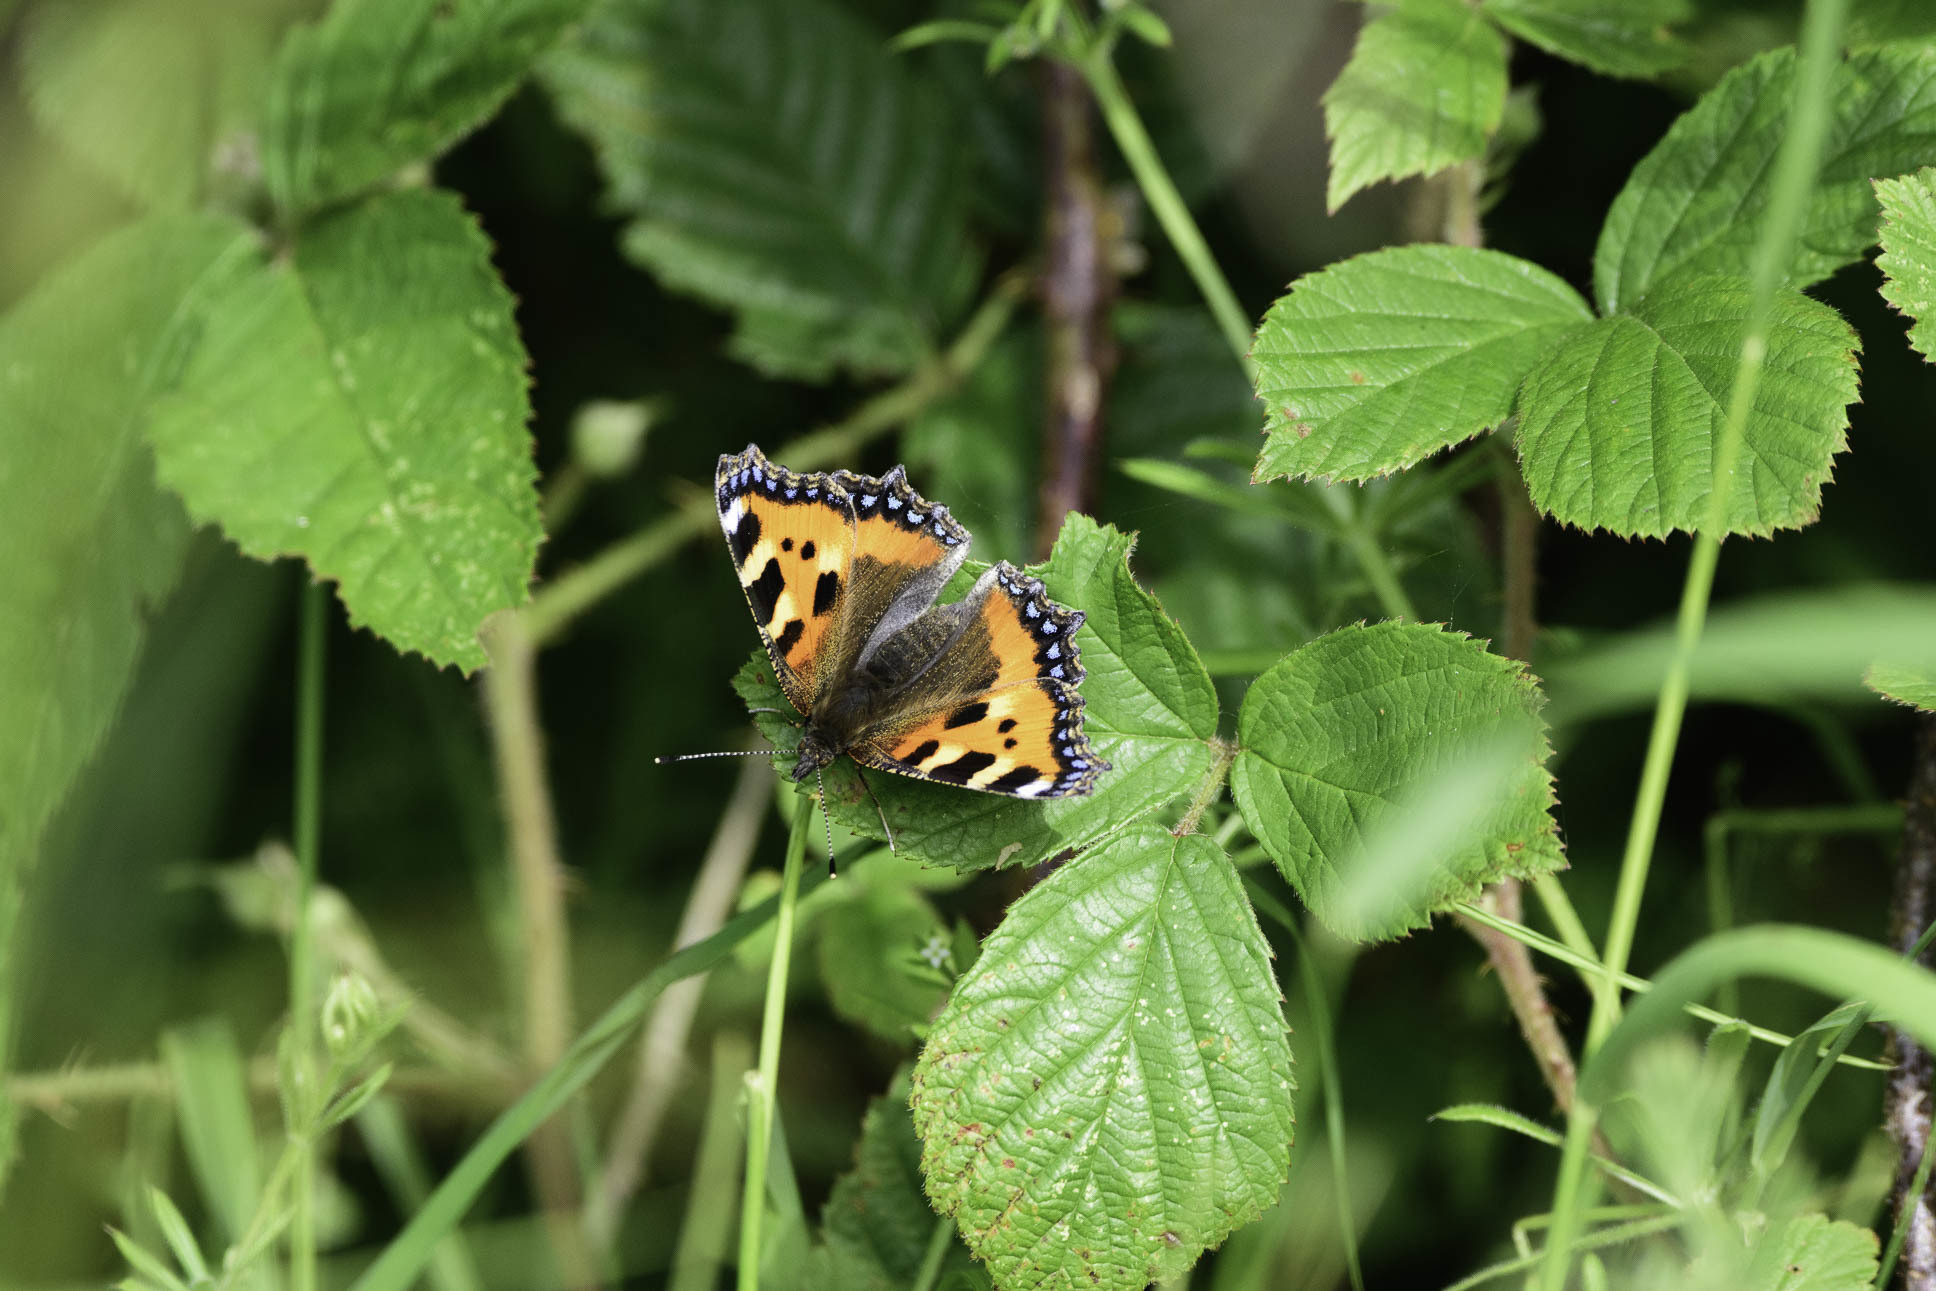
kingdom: Animalia
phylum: Arthropoda
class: Insecta
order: Lepidoptera
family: Nymphalidae
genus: Aglais
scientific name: Aglais urticae
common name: Small tortoiseshell
